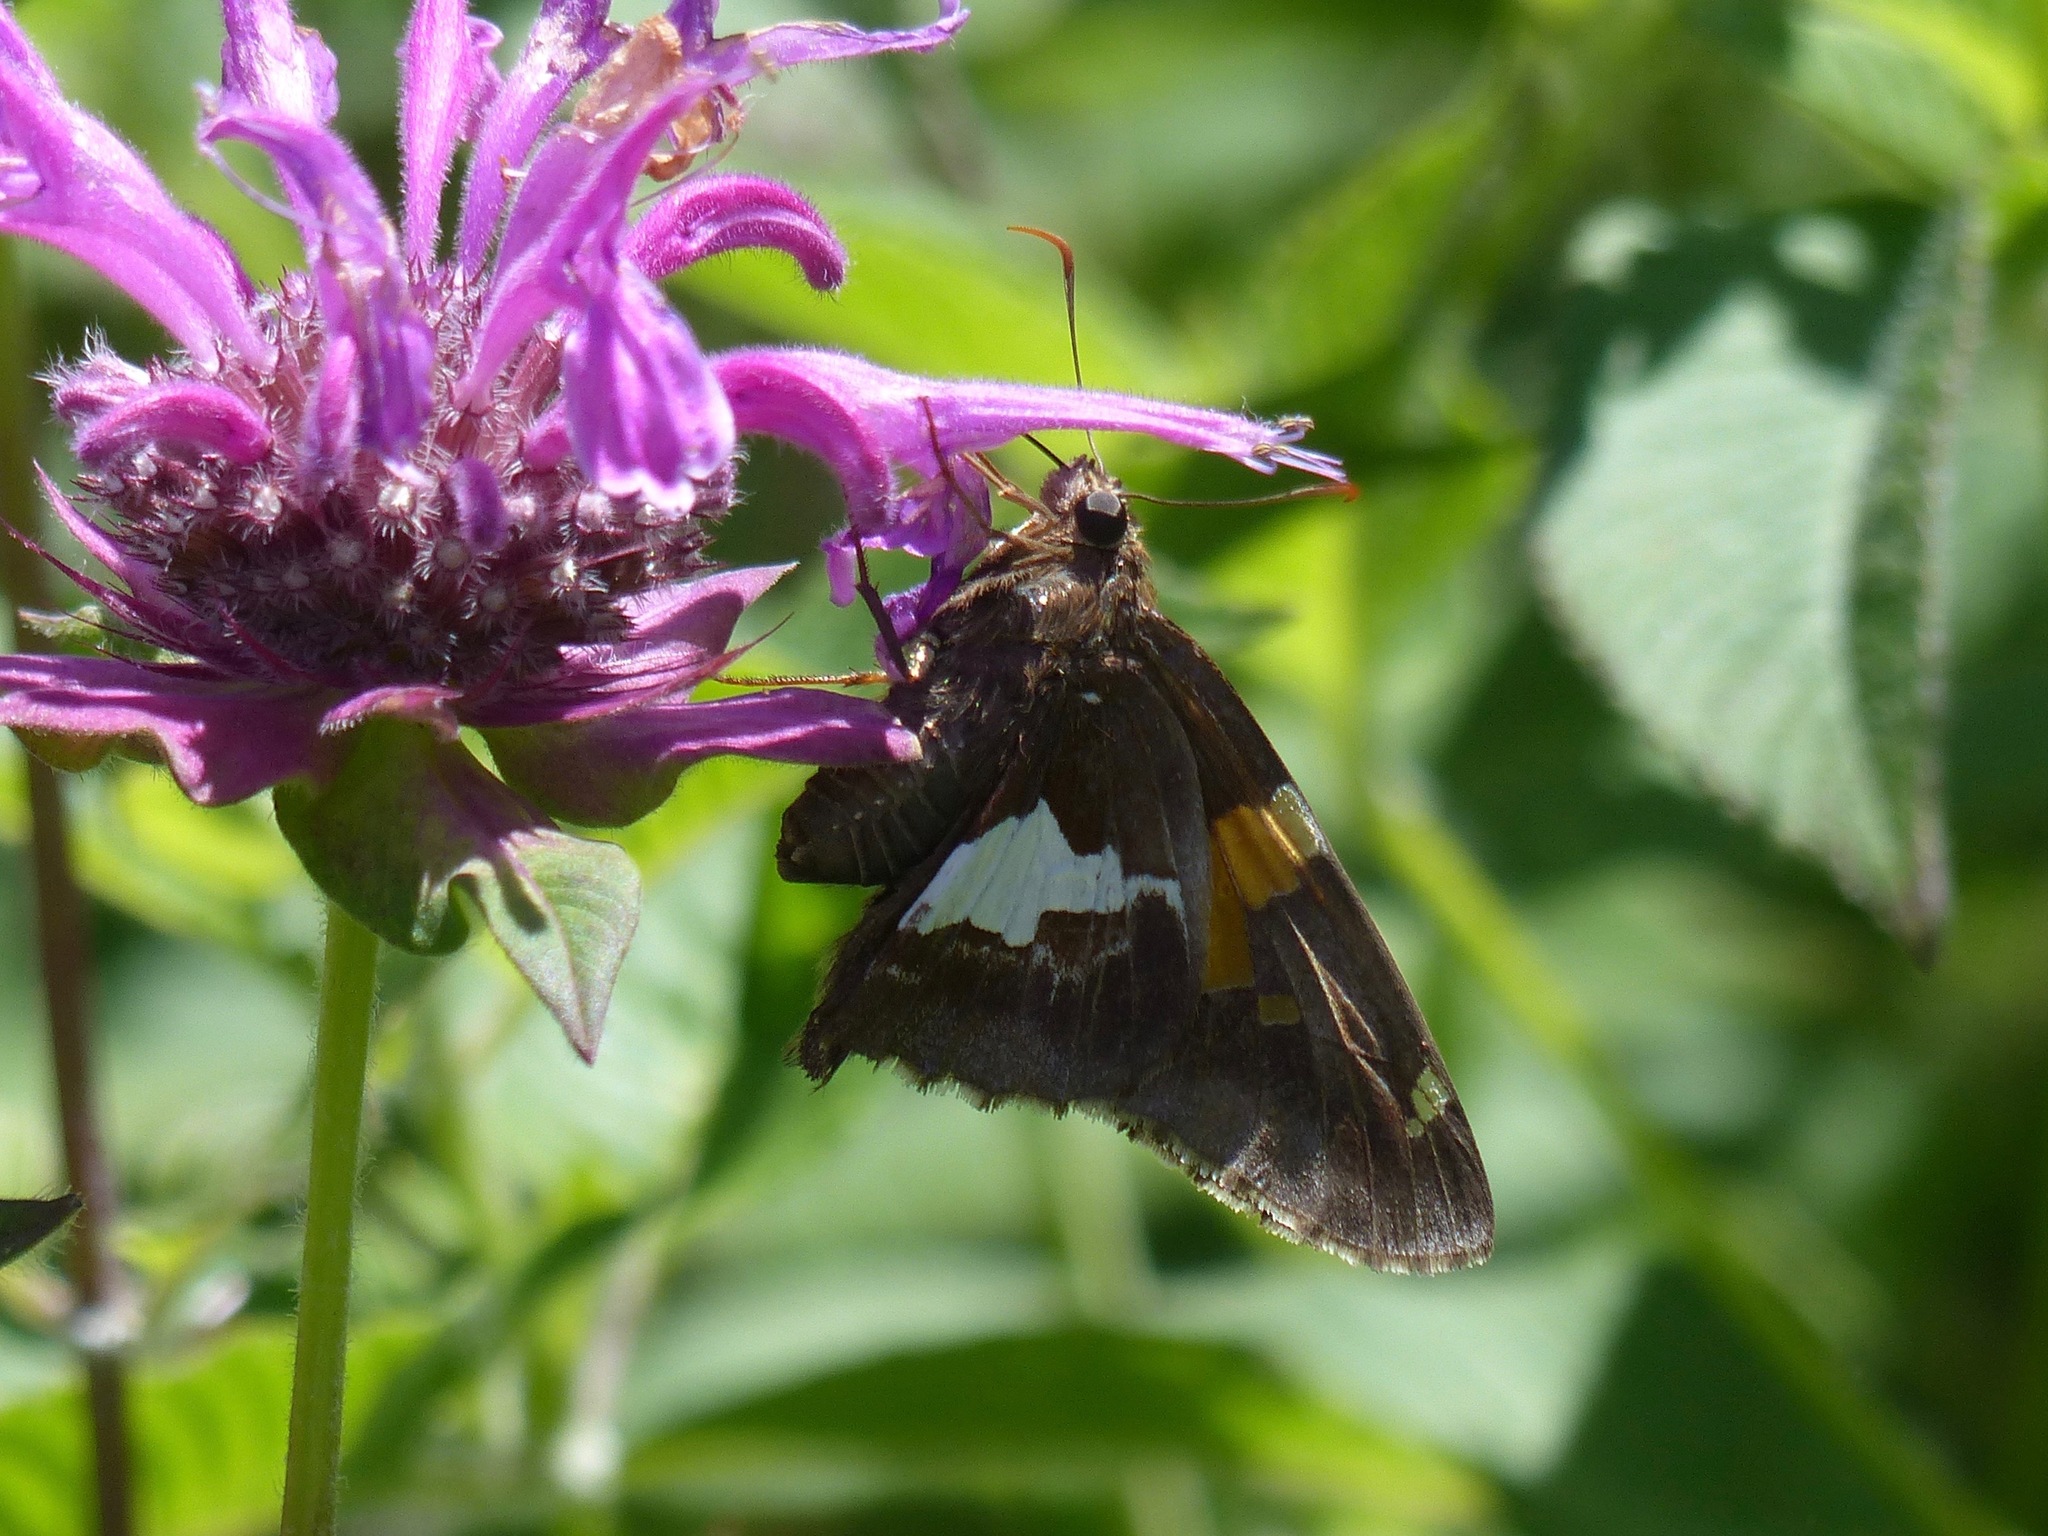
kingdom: Animalia
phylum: Arthropoda
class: Insecta
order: Lepidoptera
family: Hesperiidae
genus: Epargyreus
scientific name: Epargyreus clarus
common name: Silver-spotted skipper
